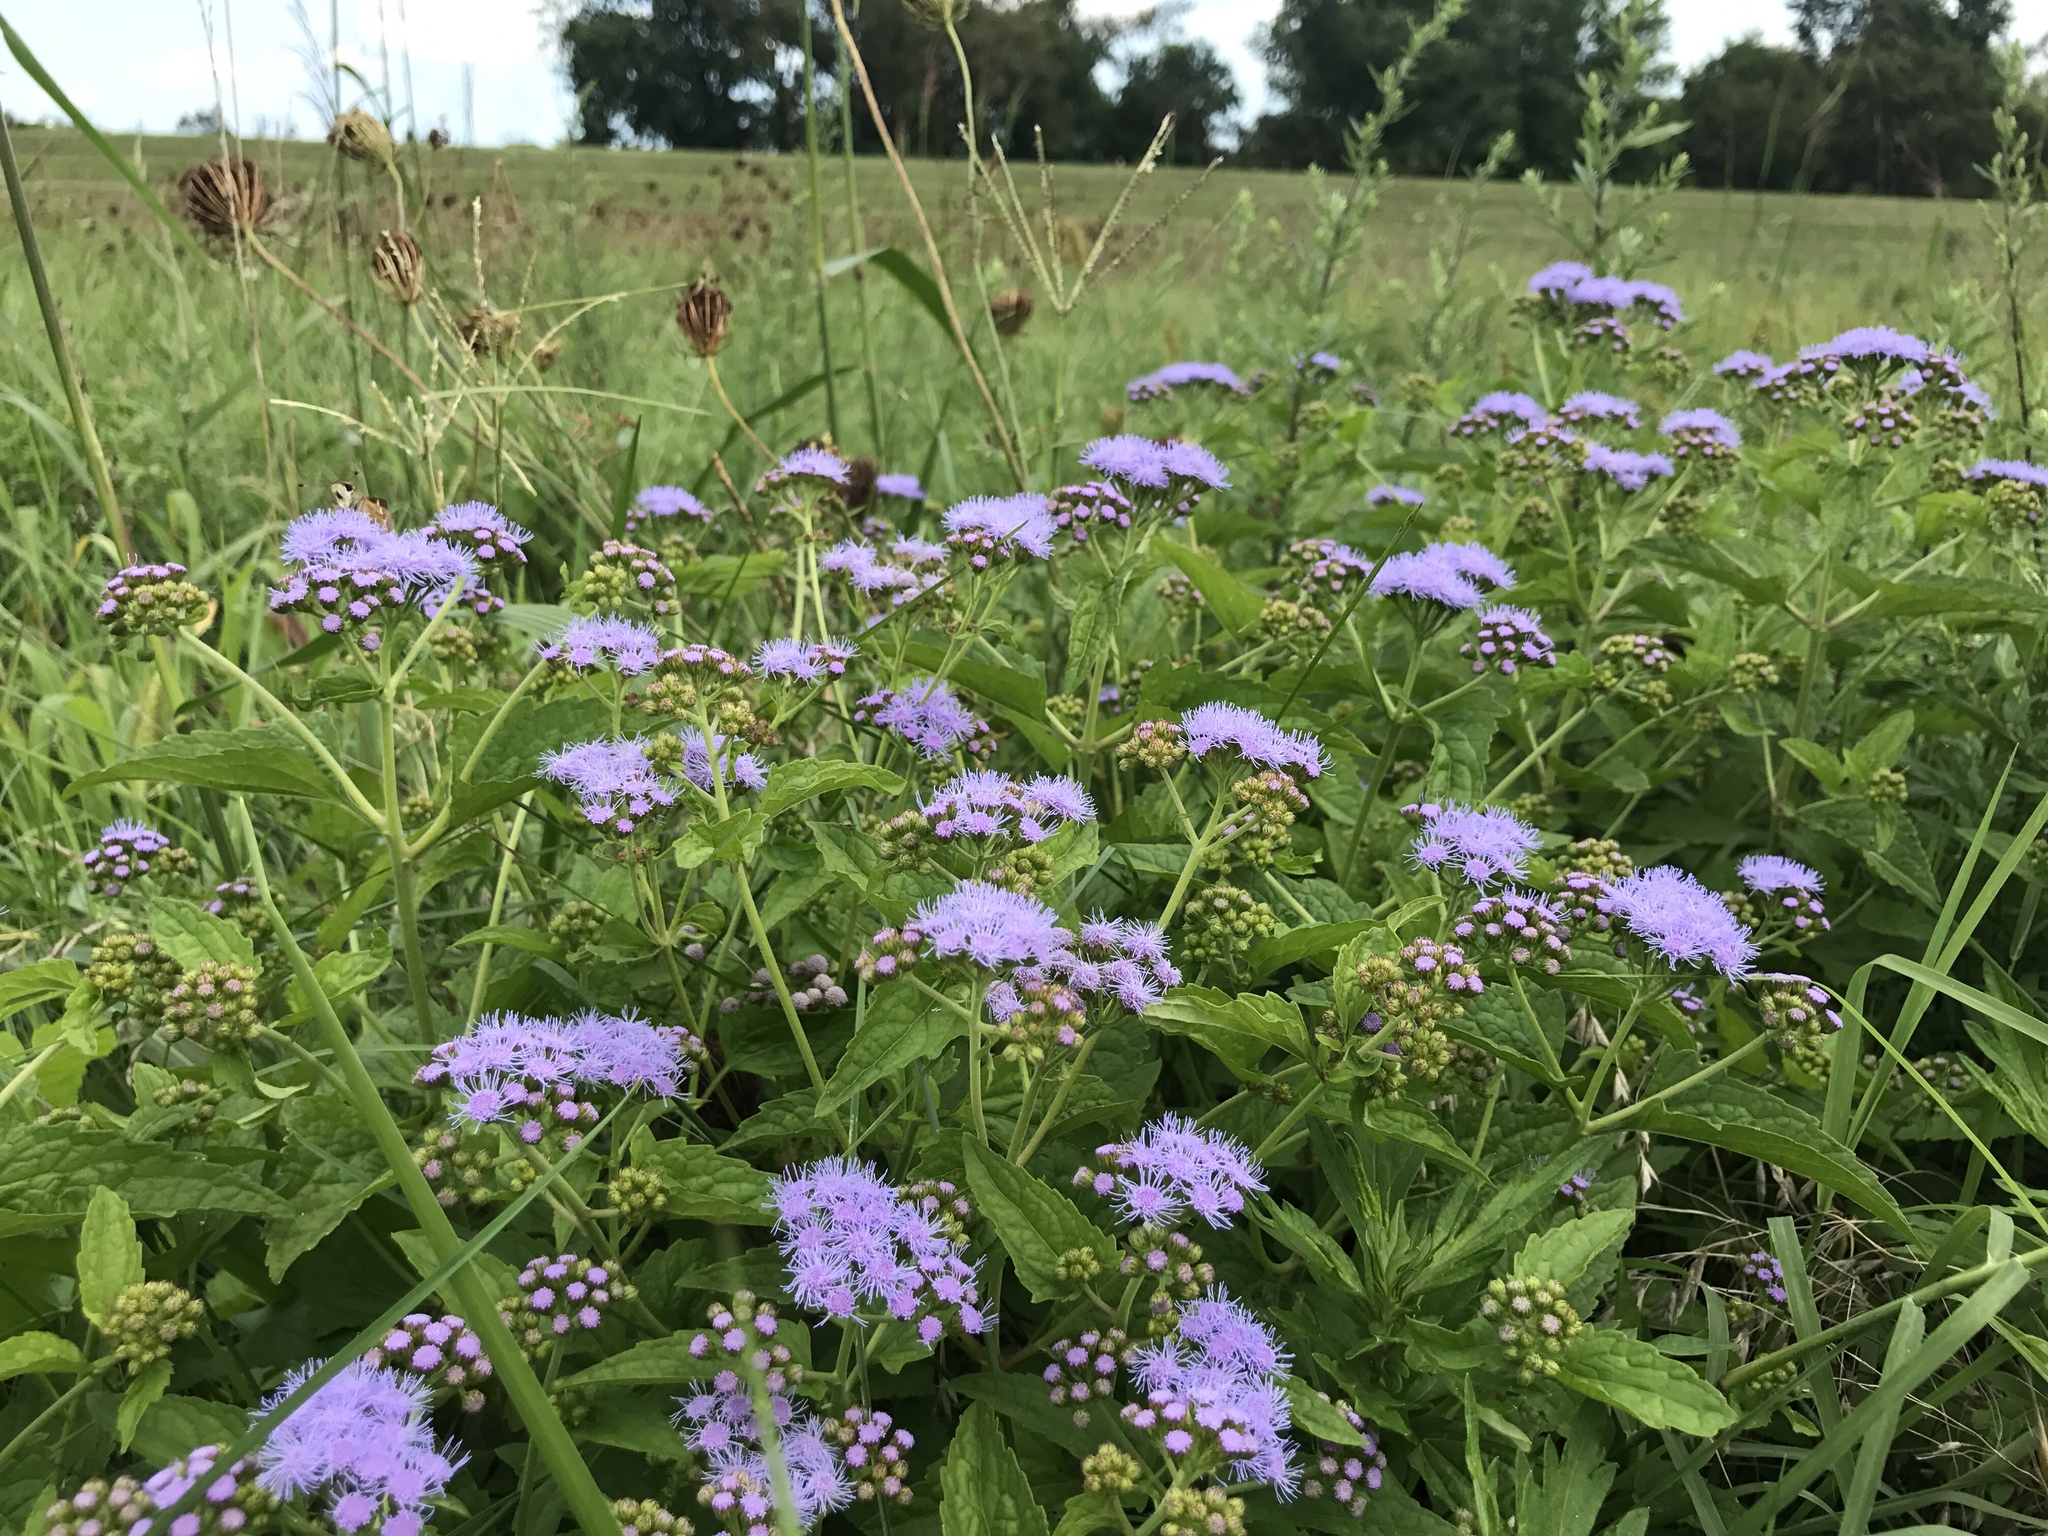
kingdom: Plantae
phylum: Tracheophyta
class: Magnoliopsida
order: Asterales
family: Asteraceae
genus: Conoclinium
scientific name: Conoclinium coelestinum
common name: Blue mistflower
